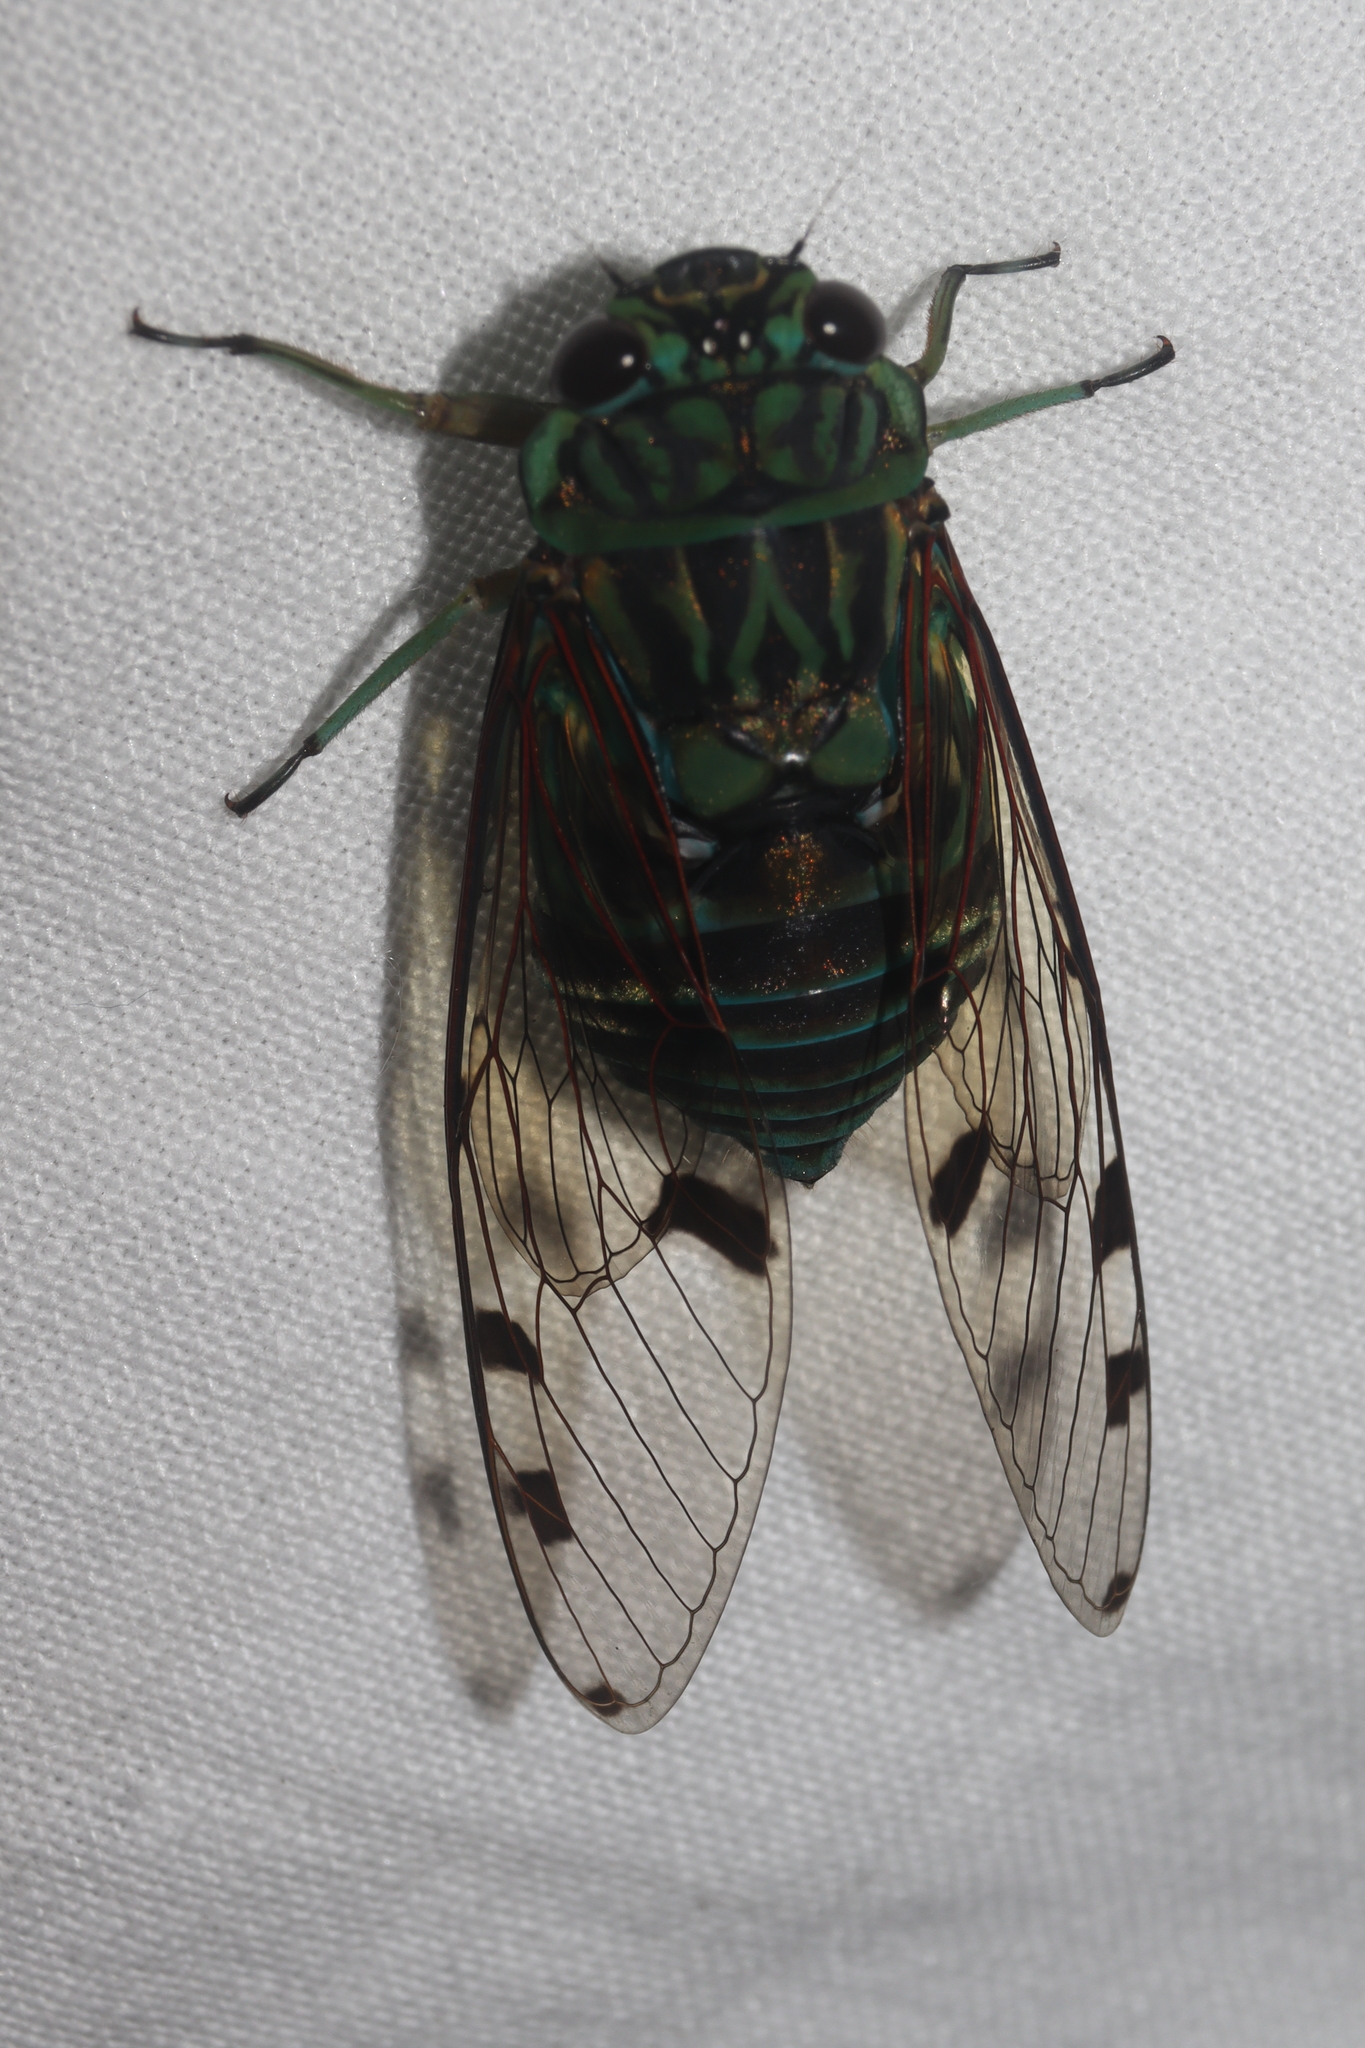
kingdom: Animalia
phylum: Arthropoda
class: Insecta
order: Hemiptera
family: Cicadidae
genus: Zammara
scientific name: Zammara smaragdula
